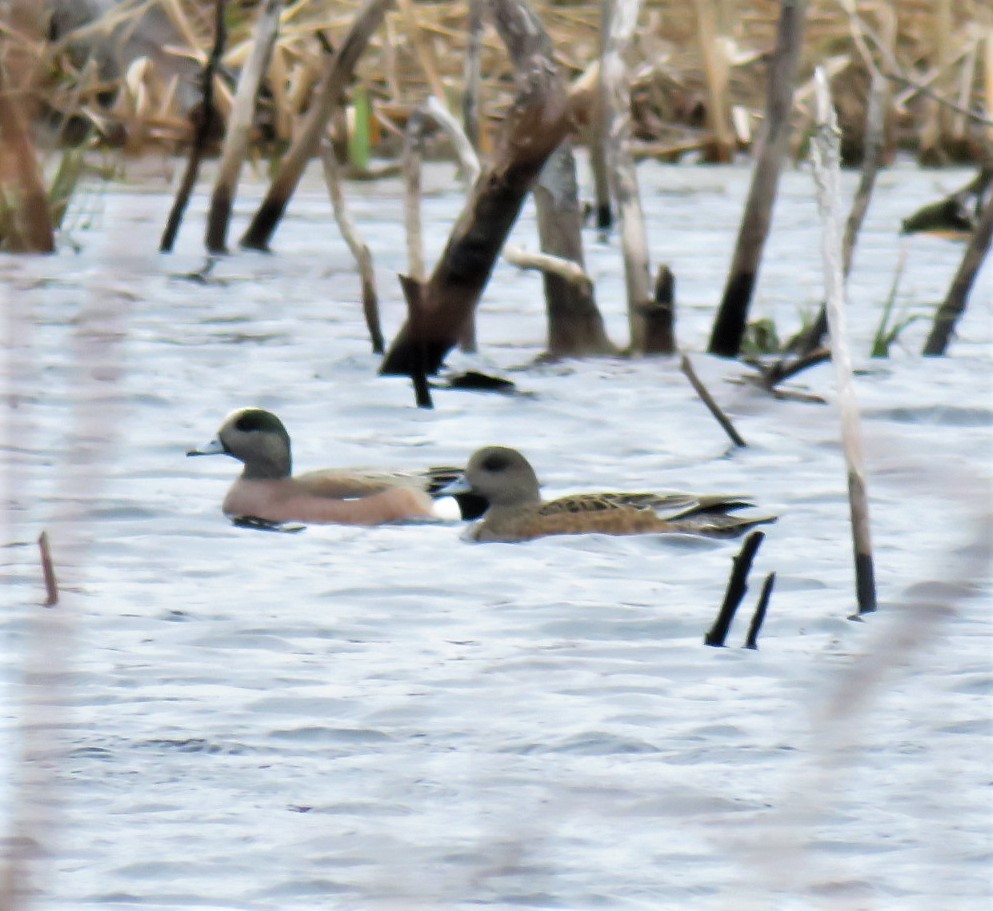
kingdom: Animalia
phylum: Chordata
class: Aves
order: Anseriformes
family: Anatidae
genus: Mareca
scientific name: Mareca americana
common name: American wigeon
